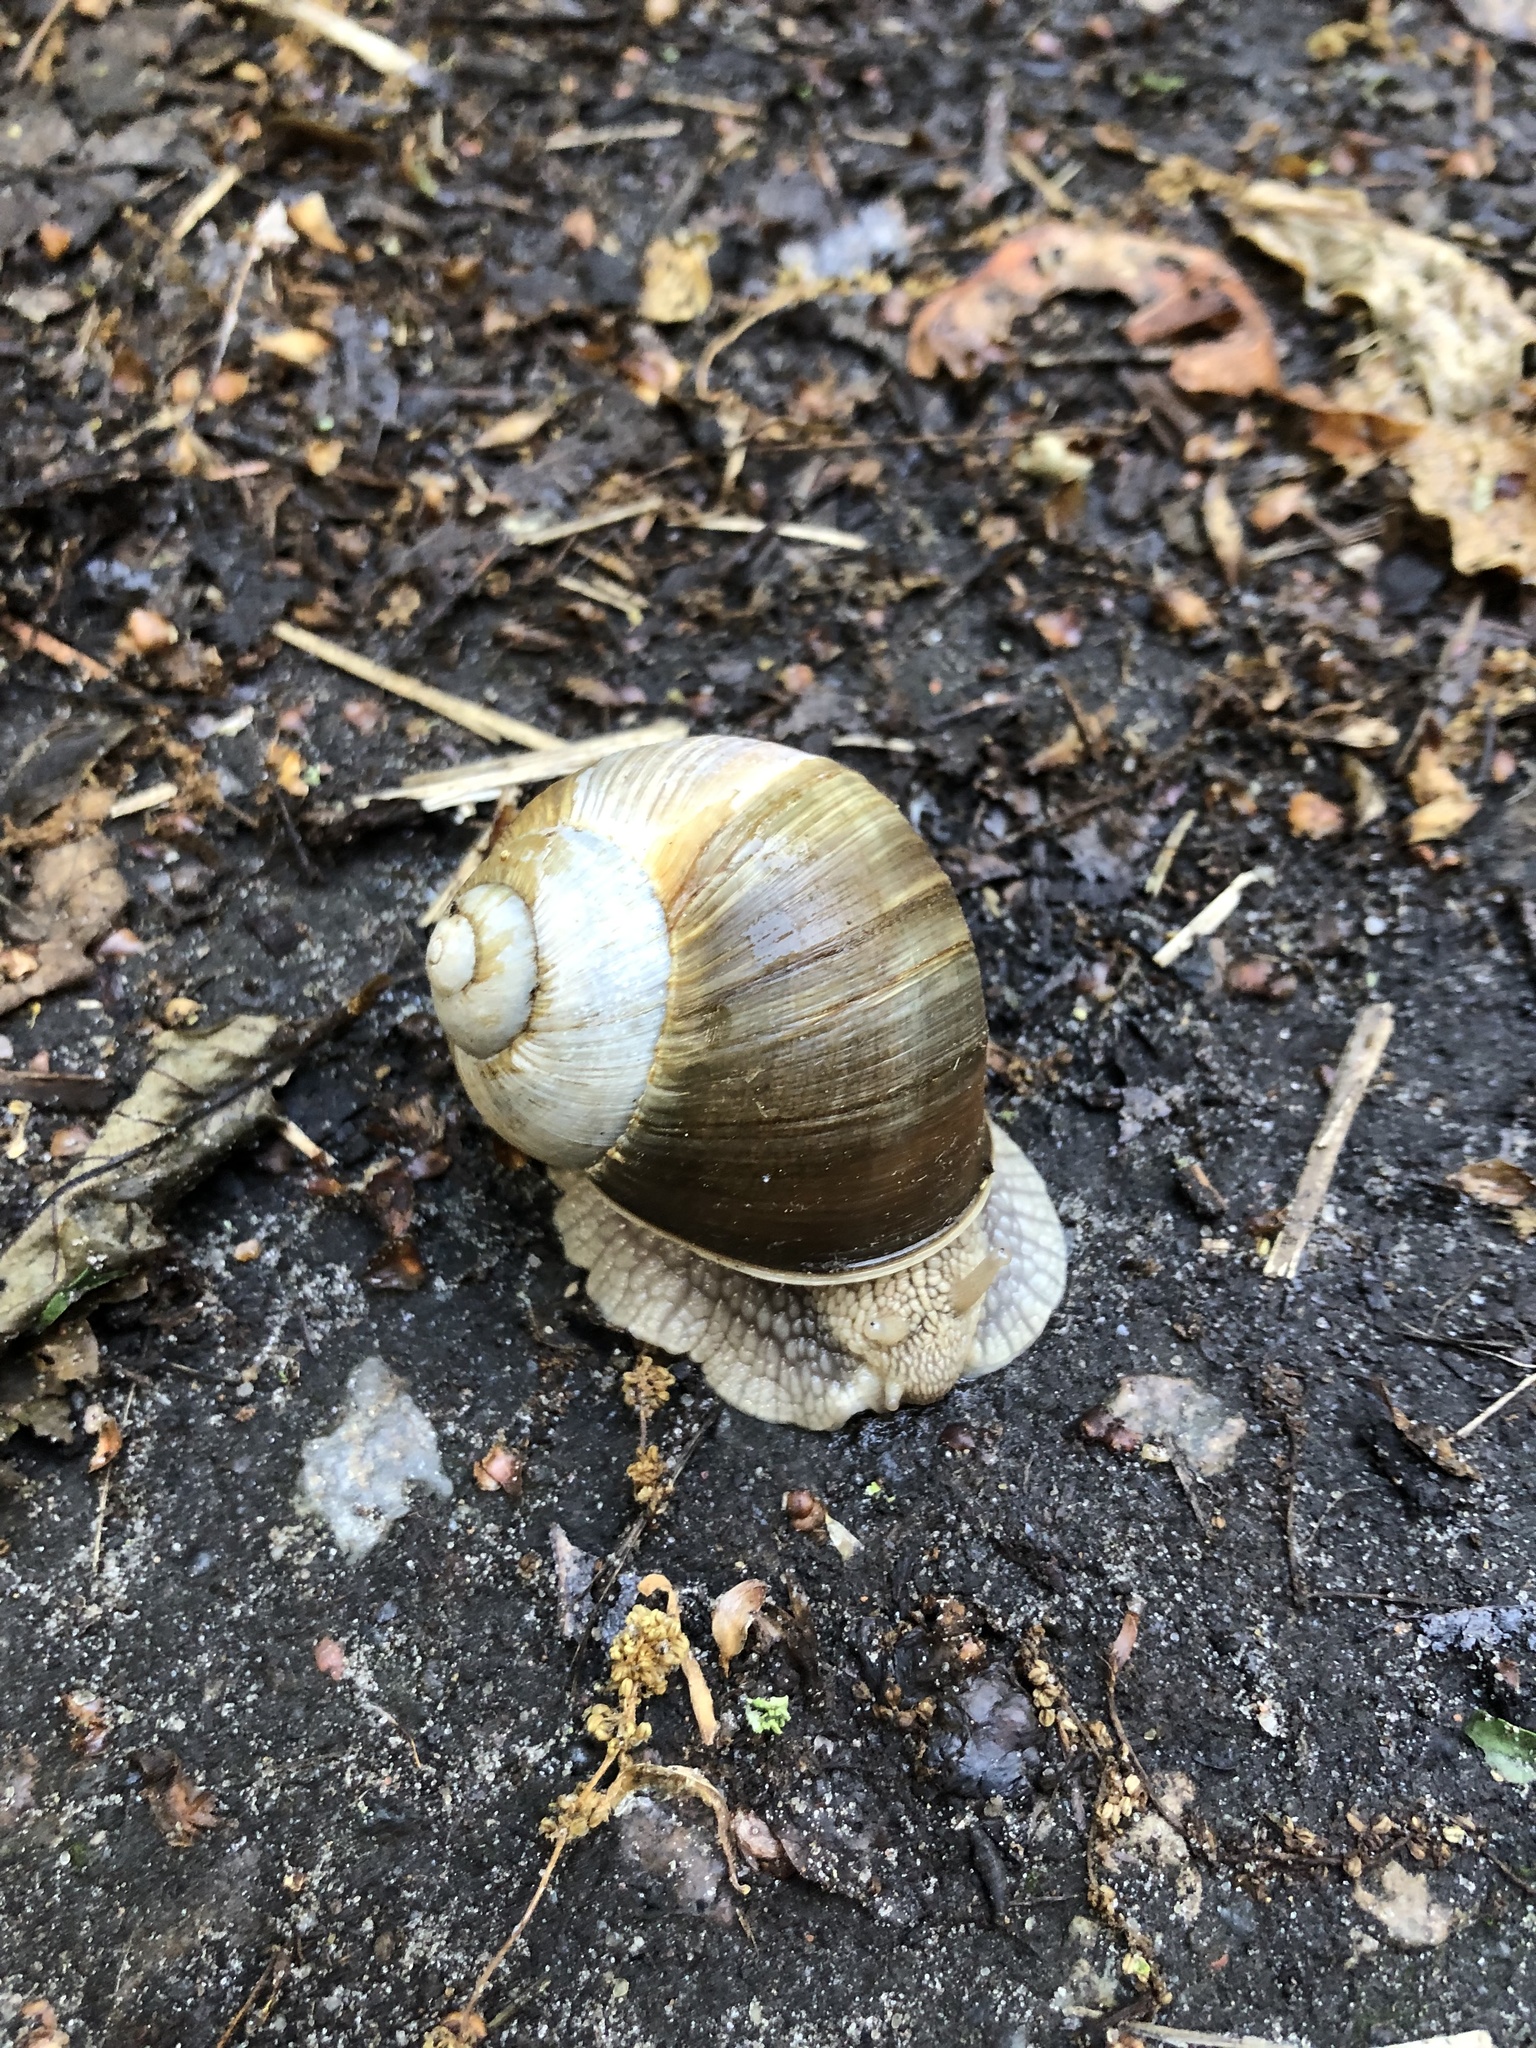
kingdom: Animalia
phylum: Mollusca
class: Gastropoda
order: Stylommatophora
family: Helicidae
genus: Helix
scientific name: Helix pomatia
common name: Roman snail
